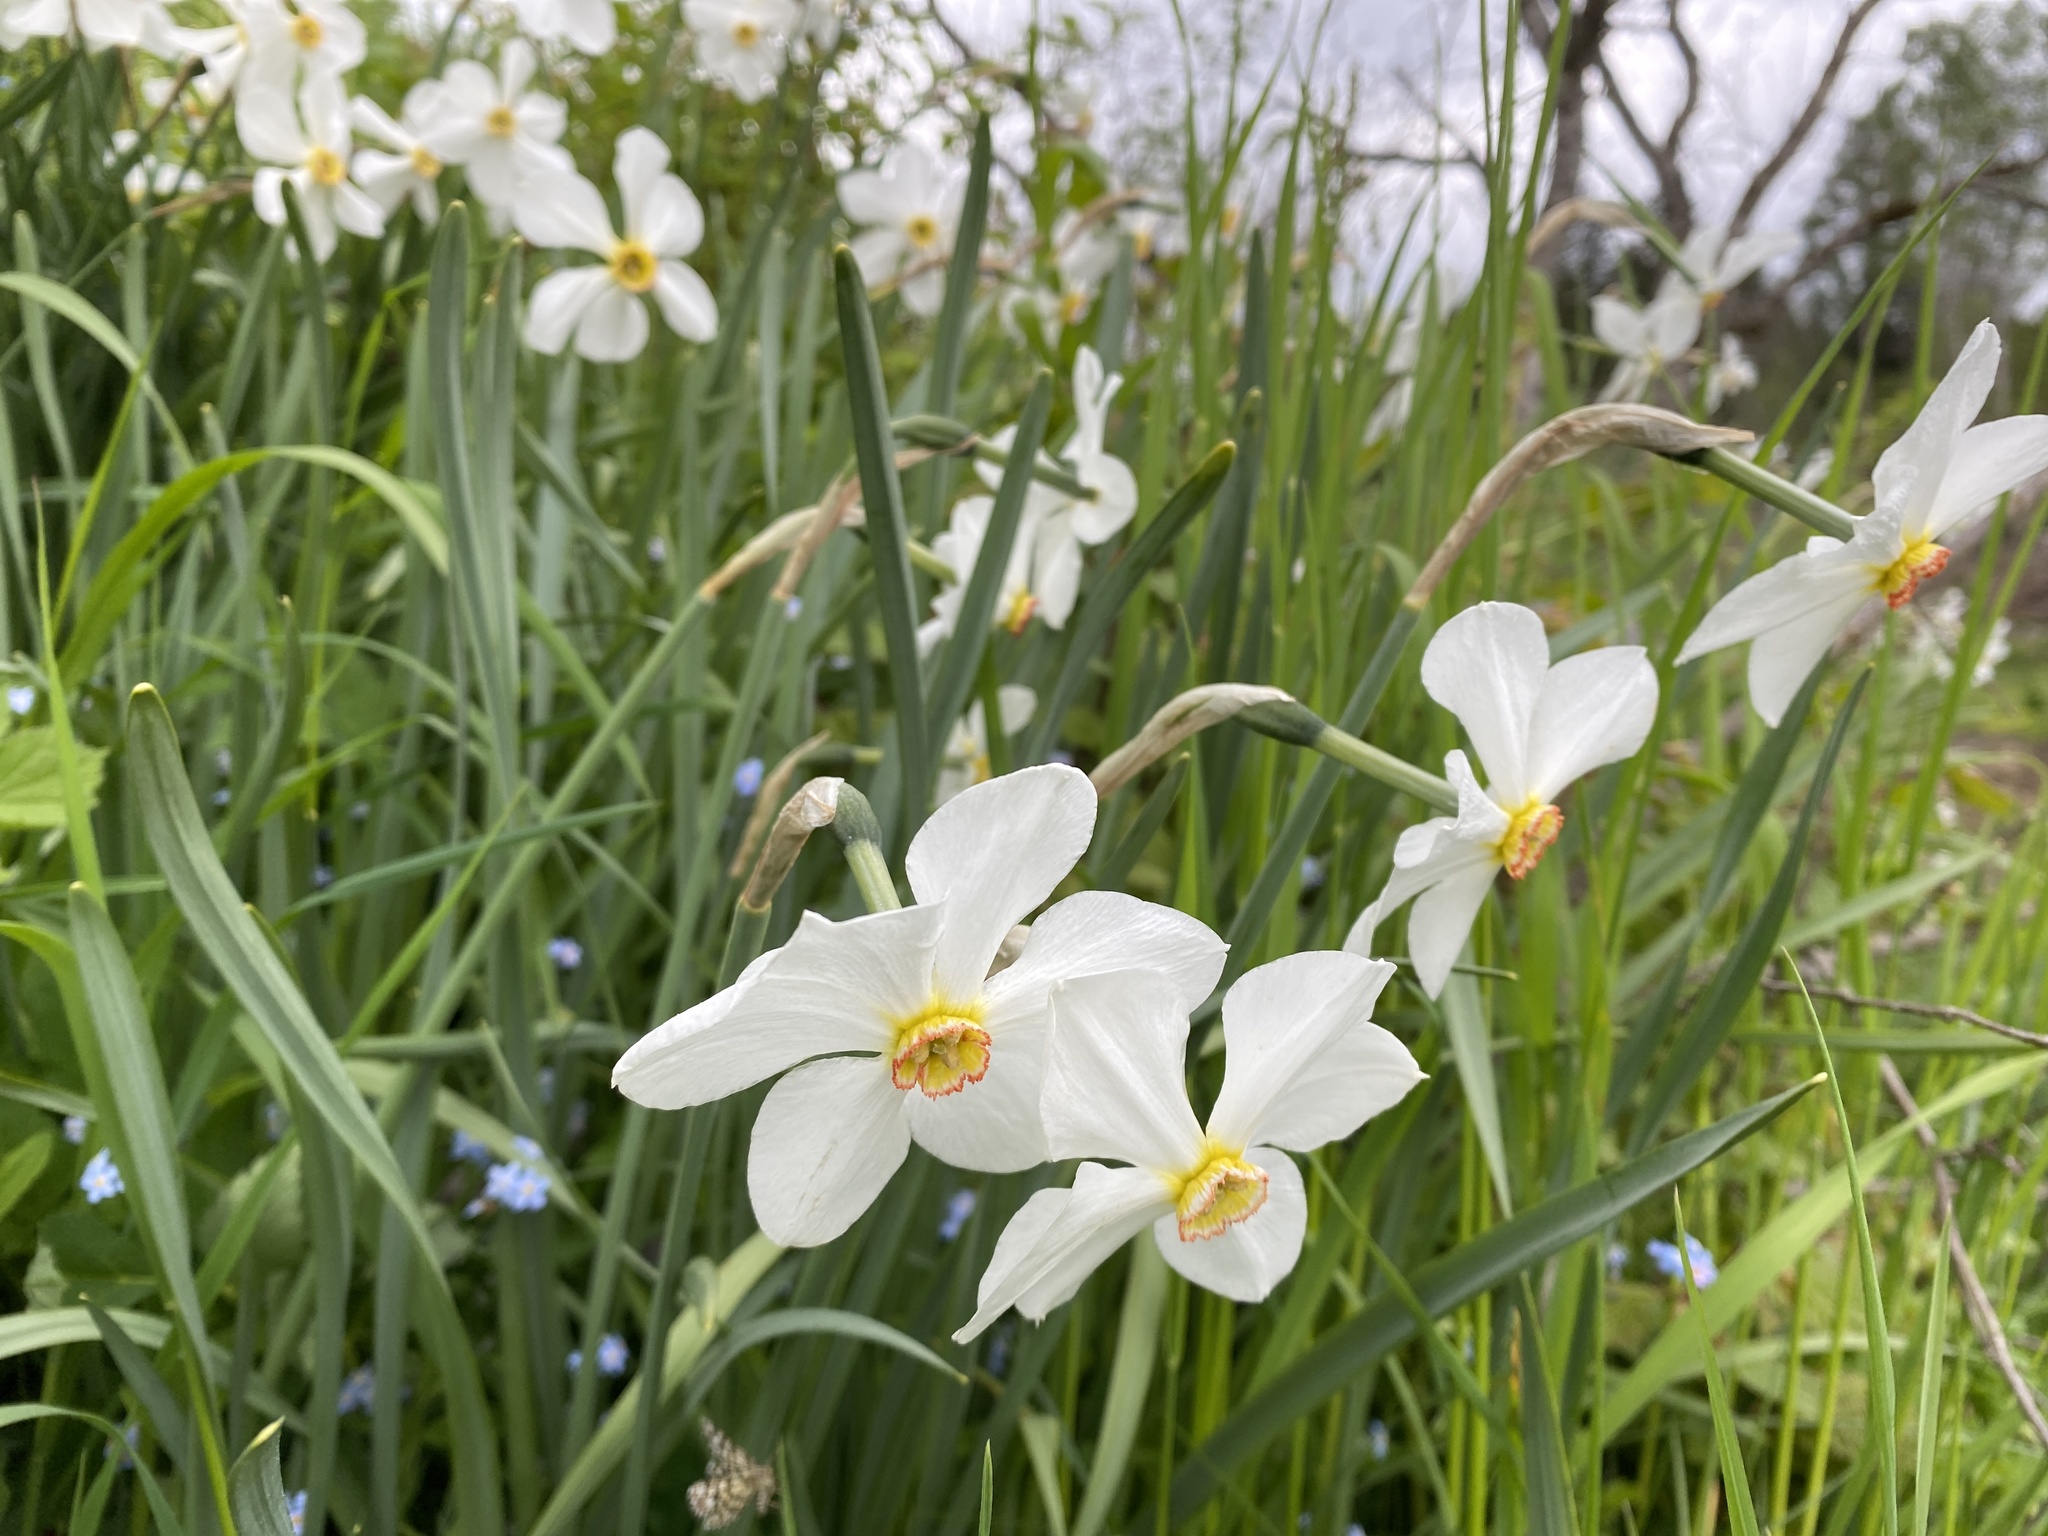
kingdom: Plantae
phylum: Tracheophyta
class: Liliopsida
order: Asparagales
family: Amaryllidaceae
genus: Narcissus
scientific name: Narcissus poeticus
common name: Pheasant's-eye daffodil
